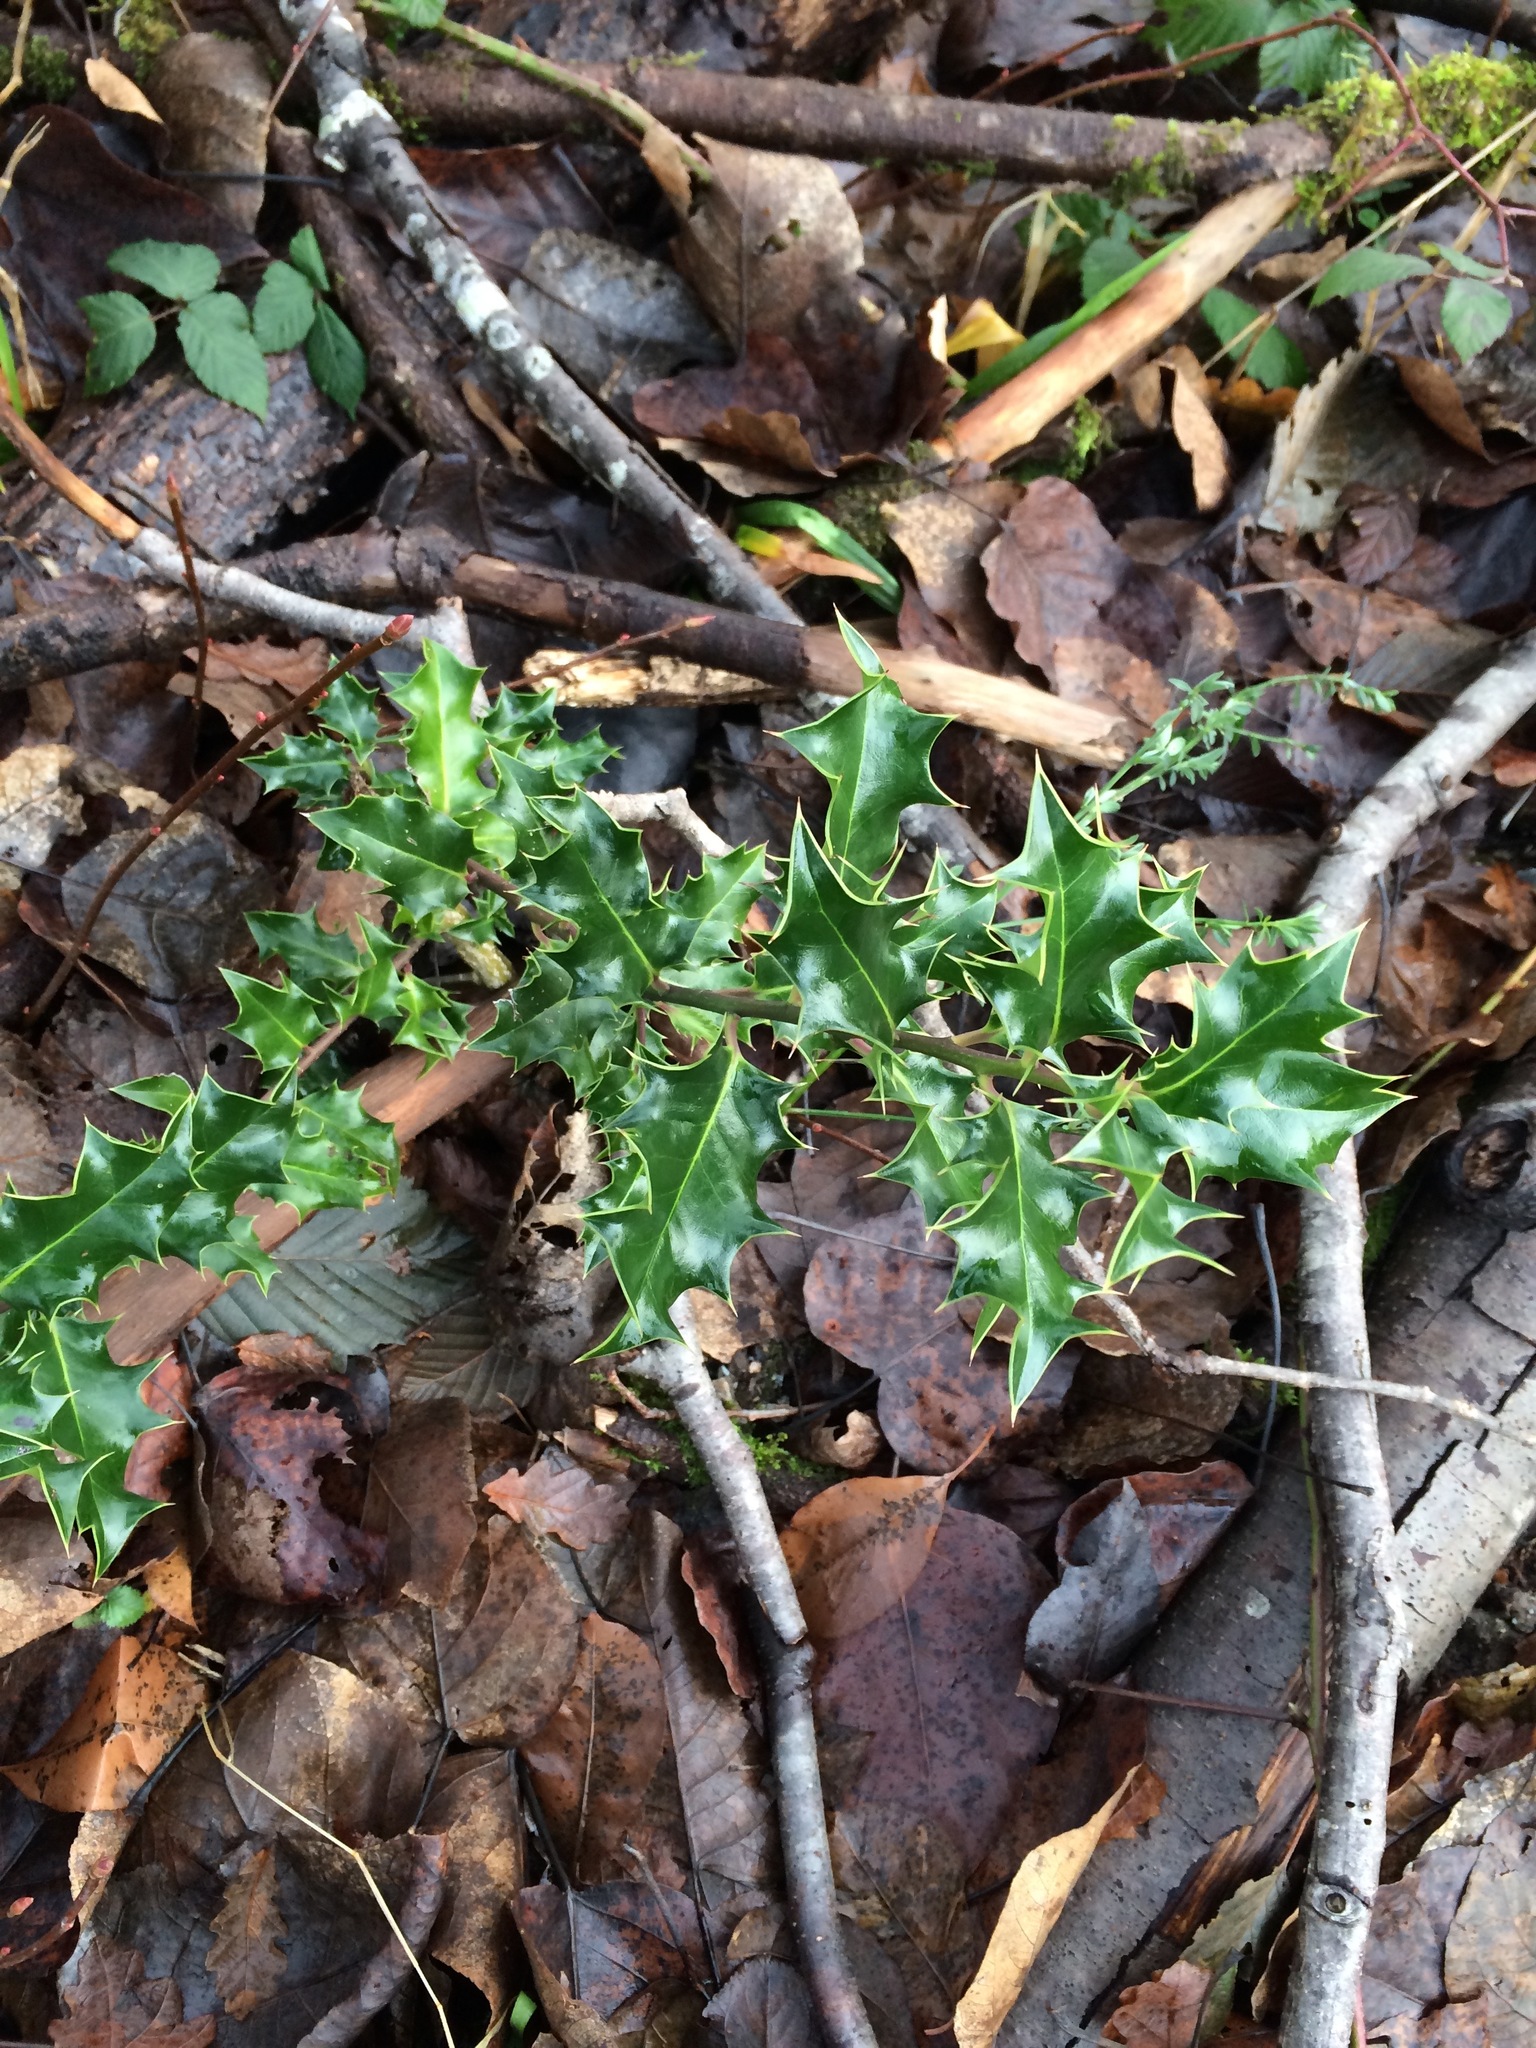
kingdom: Plantae
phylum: Tracheophyta
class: Magnoliopsida
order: Aquifoliales
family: Aquifoliaceae
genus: Ilex
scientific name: Ilex aquifolium
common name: English holly
